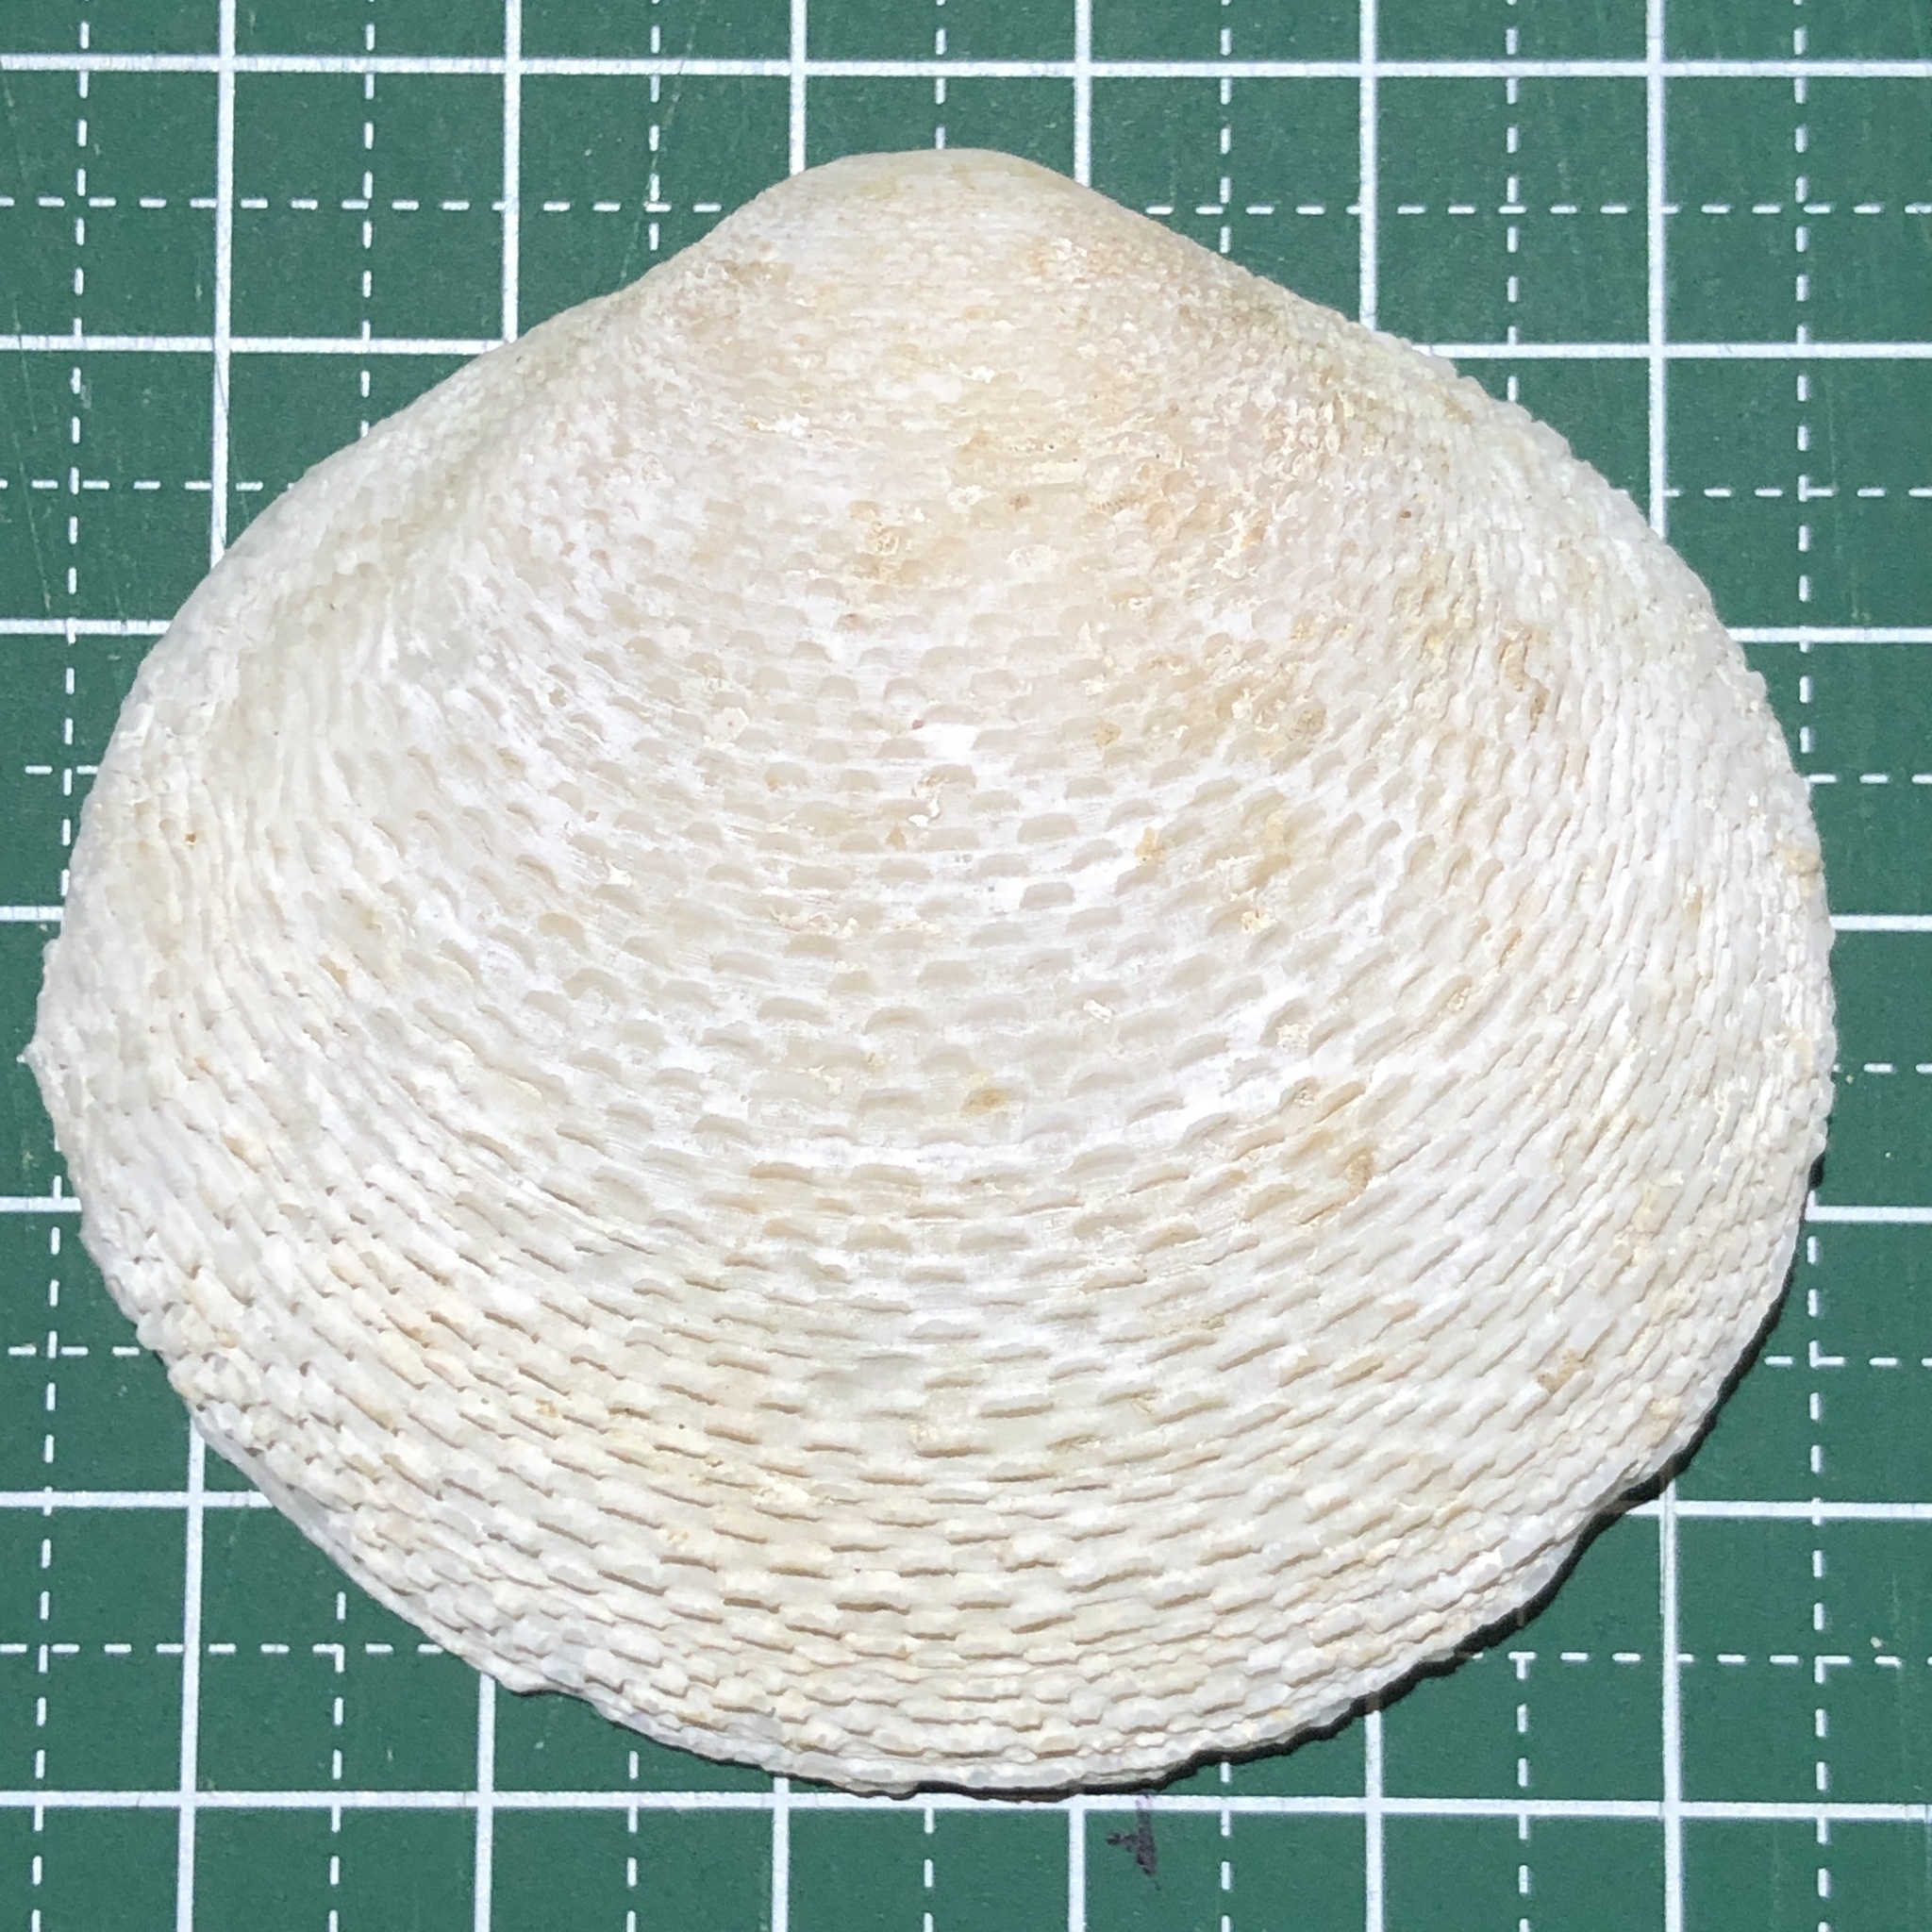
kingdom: Animalia
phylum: Mollusca
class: Bivalvia
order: Cardiida
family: Tellinidae
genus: Scutarcopagia
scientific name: Scutarcopagia scobinata
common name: Rasp tellin
